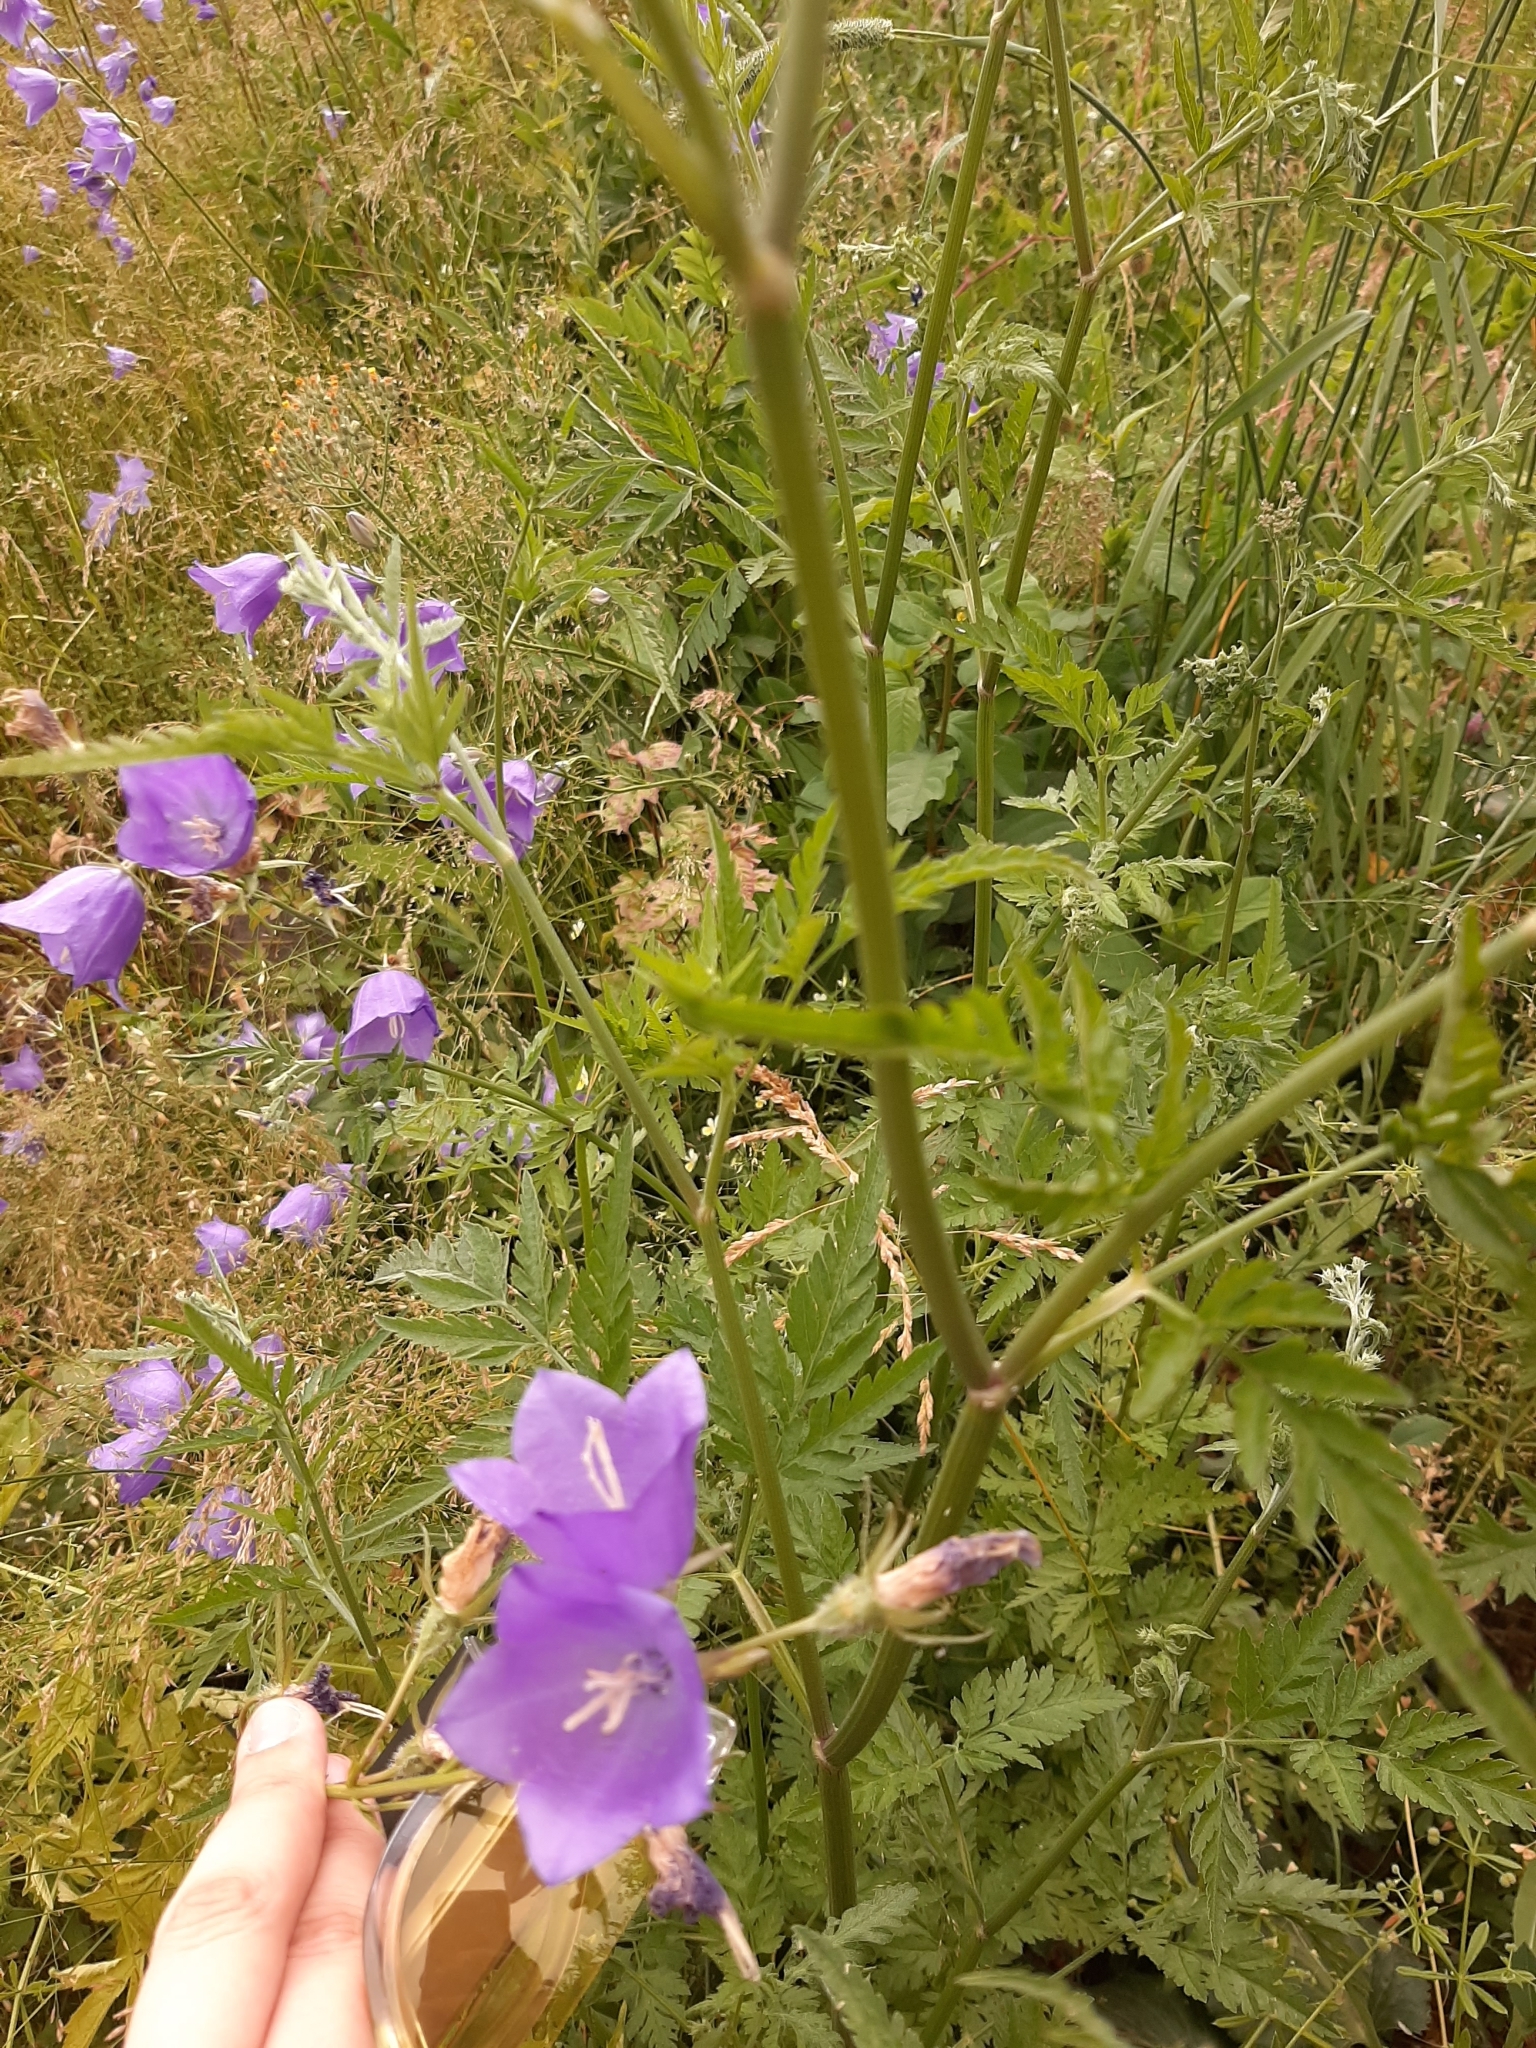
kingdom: Plantae
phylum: Tracheophyta
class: Magnoliopsida
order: Asterales
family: Campanulaceae
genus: Campanula
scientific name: Campanula persicifolia
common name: Peach-leaved bellflower
